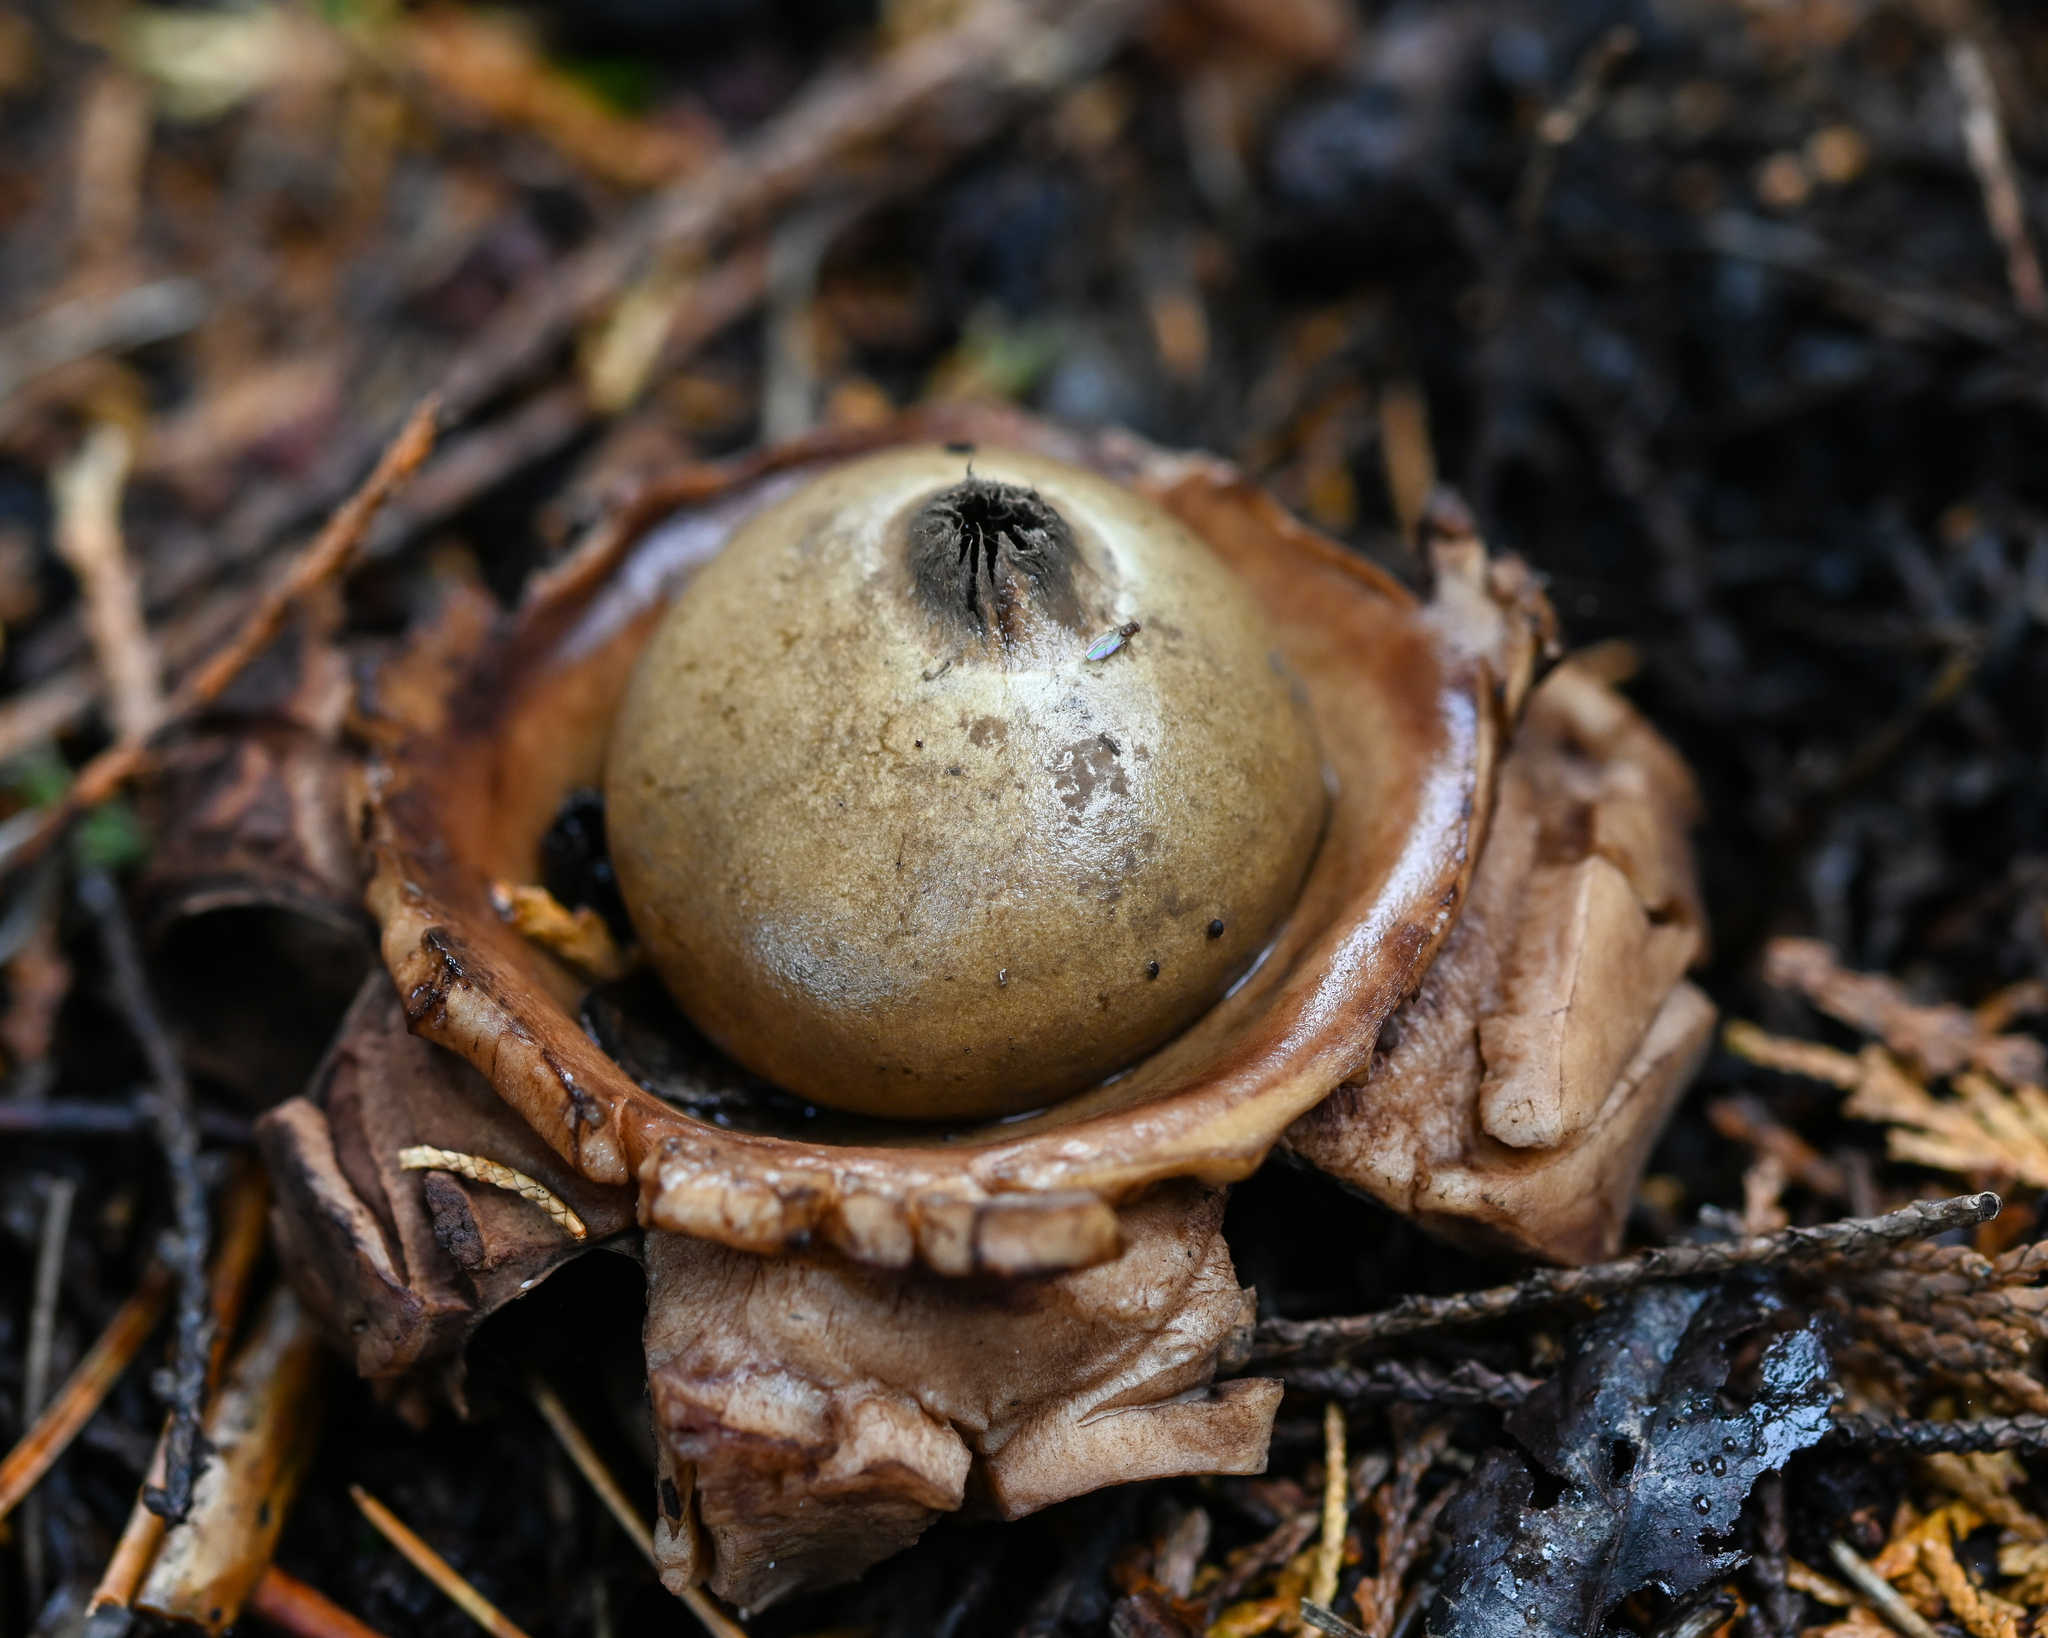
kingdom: Fungi
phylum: Basidiomycota
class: Agaricomycetes
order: Geastrales
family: Geastraceae
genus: Geastrum
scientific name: Geastrum triplex
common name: Collared earthstar
